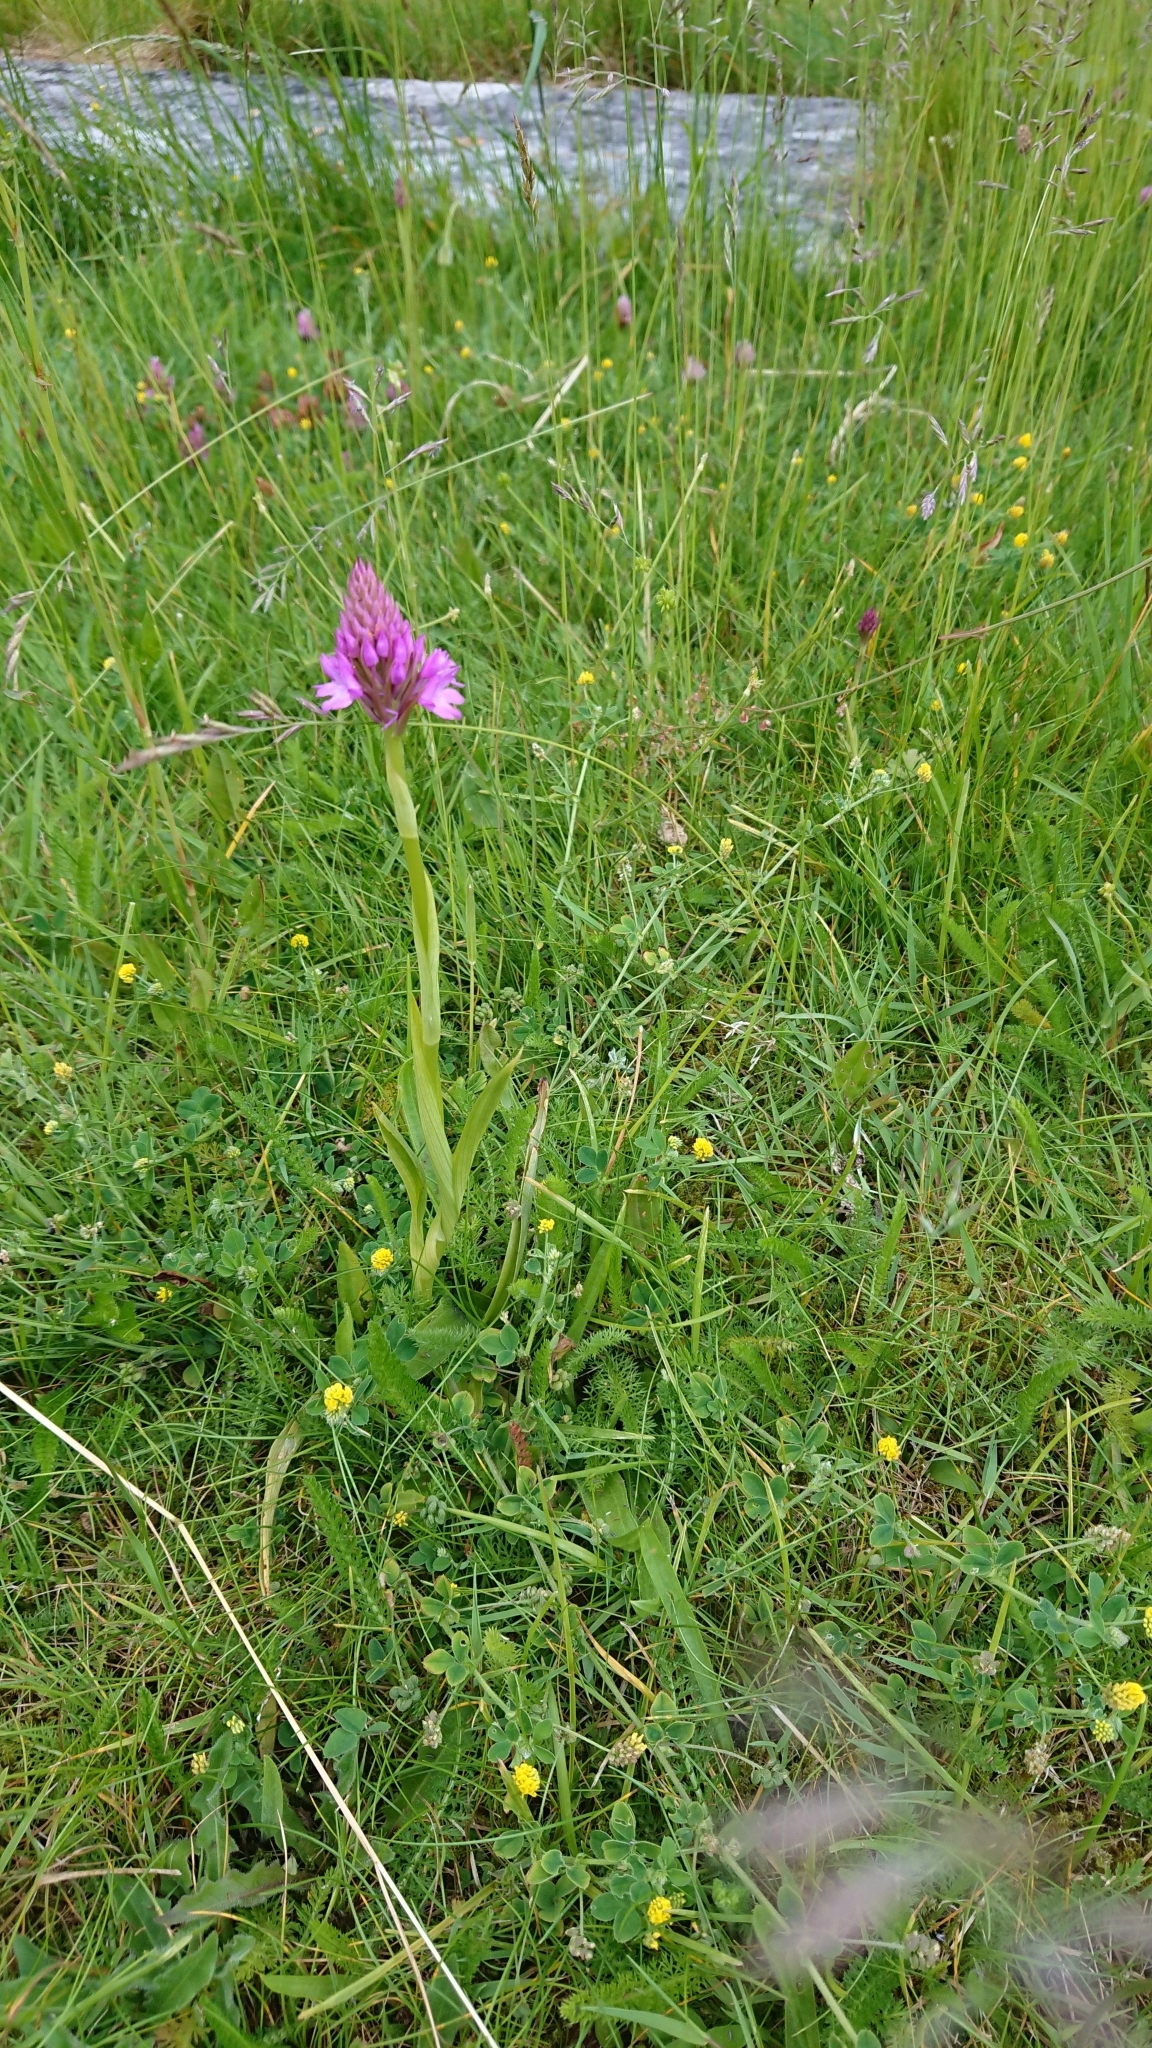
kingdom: Plantae
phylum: Tracheophyta
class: Liliopsida
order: Asparagales
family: Orchidaceae
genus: Anacamptis
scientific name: Anacamptis pyramidalis
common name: Pyramidal orchid
